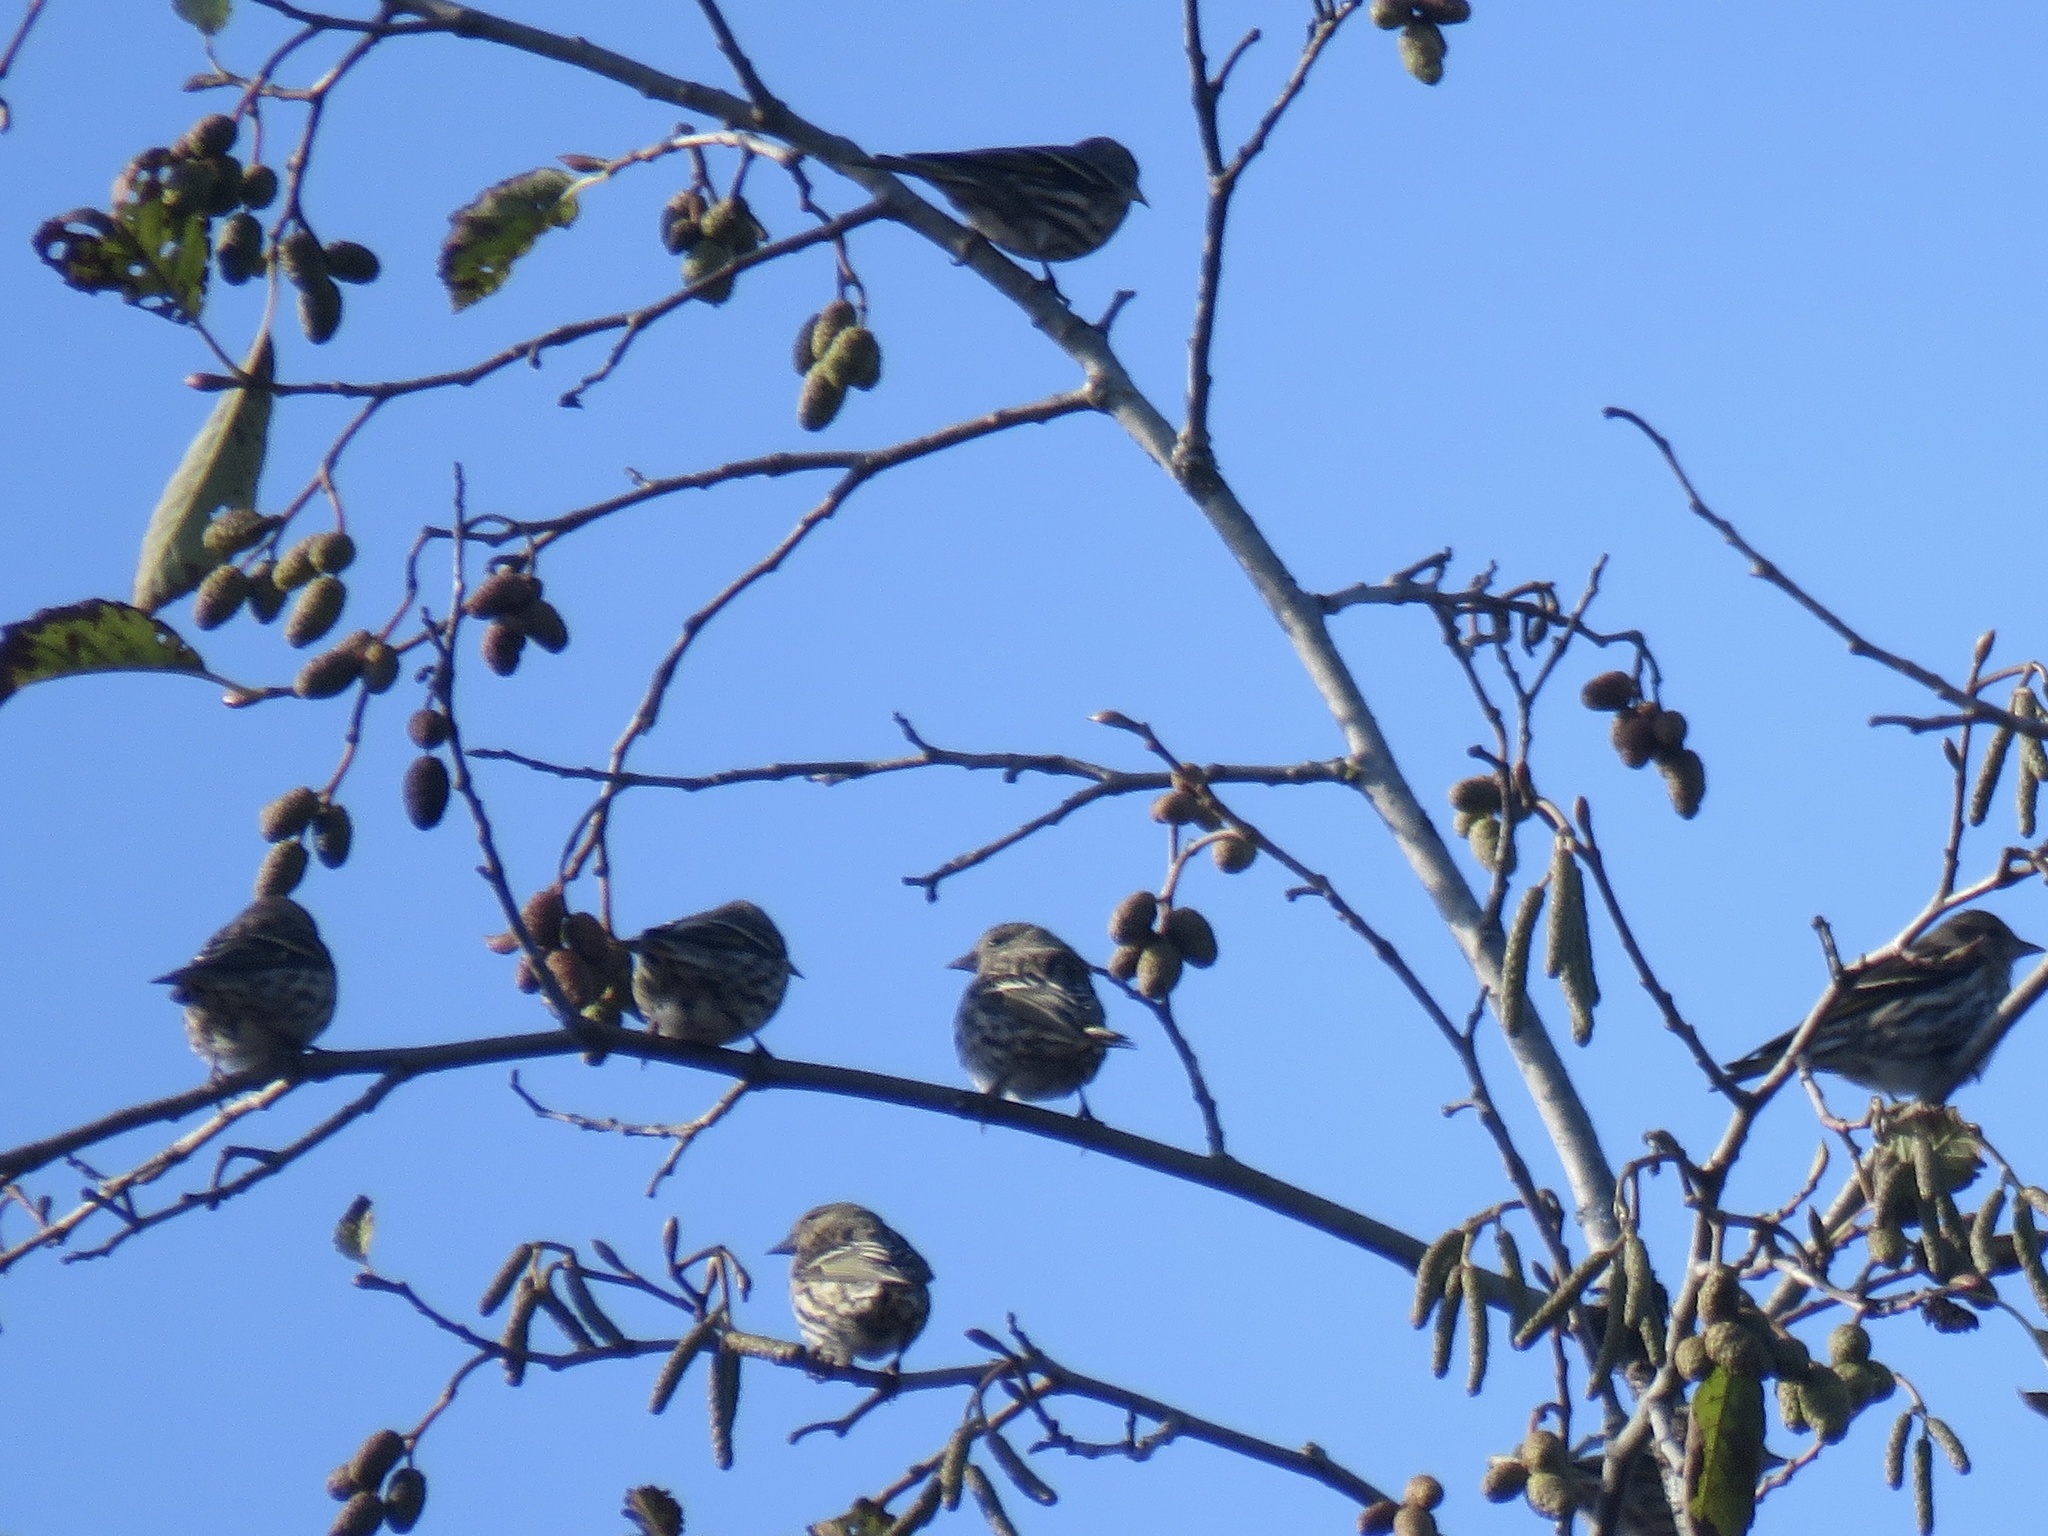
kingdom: Animalia
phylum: Chordata
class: Aves
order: Passeriformes
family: Fringillidae
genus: Spinus
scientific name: Spinus pinus
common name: Pine siskin
